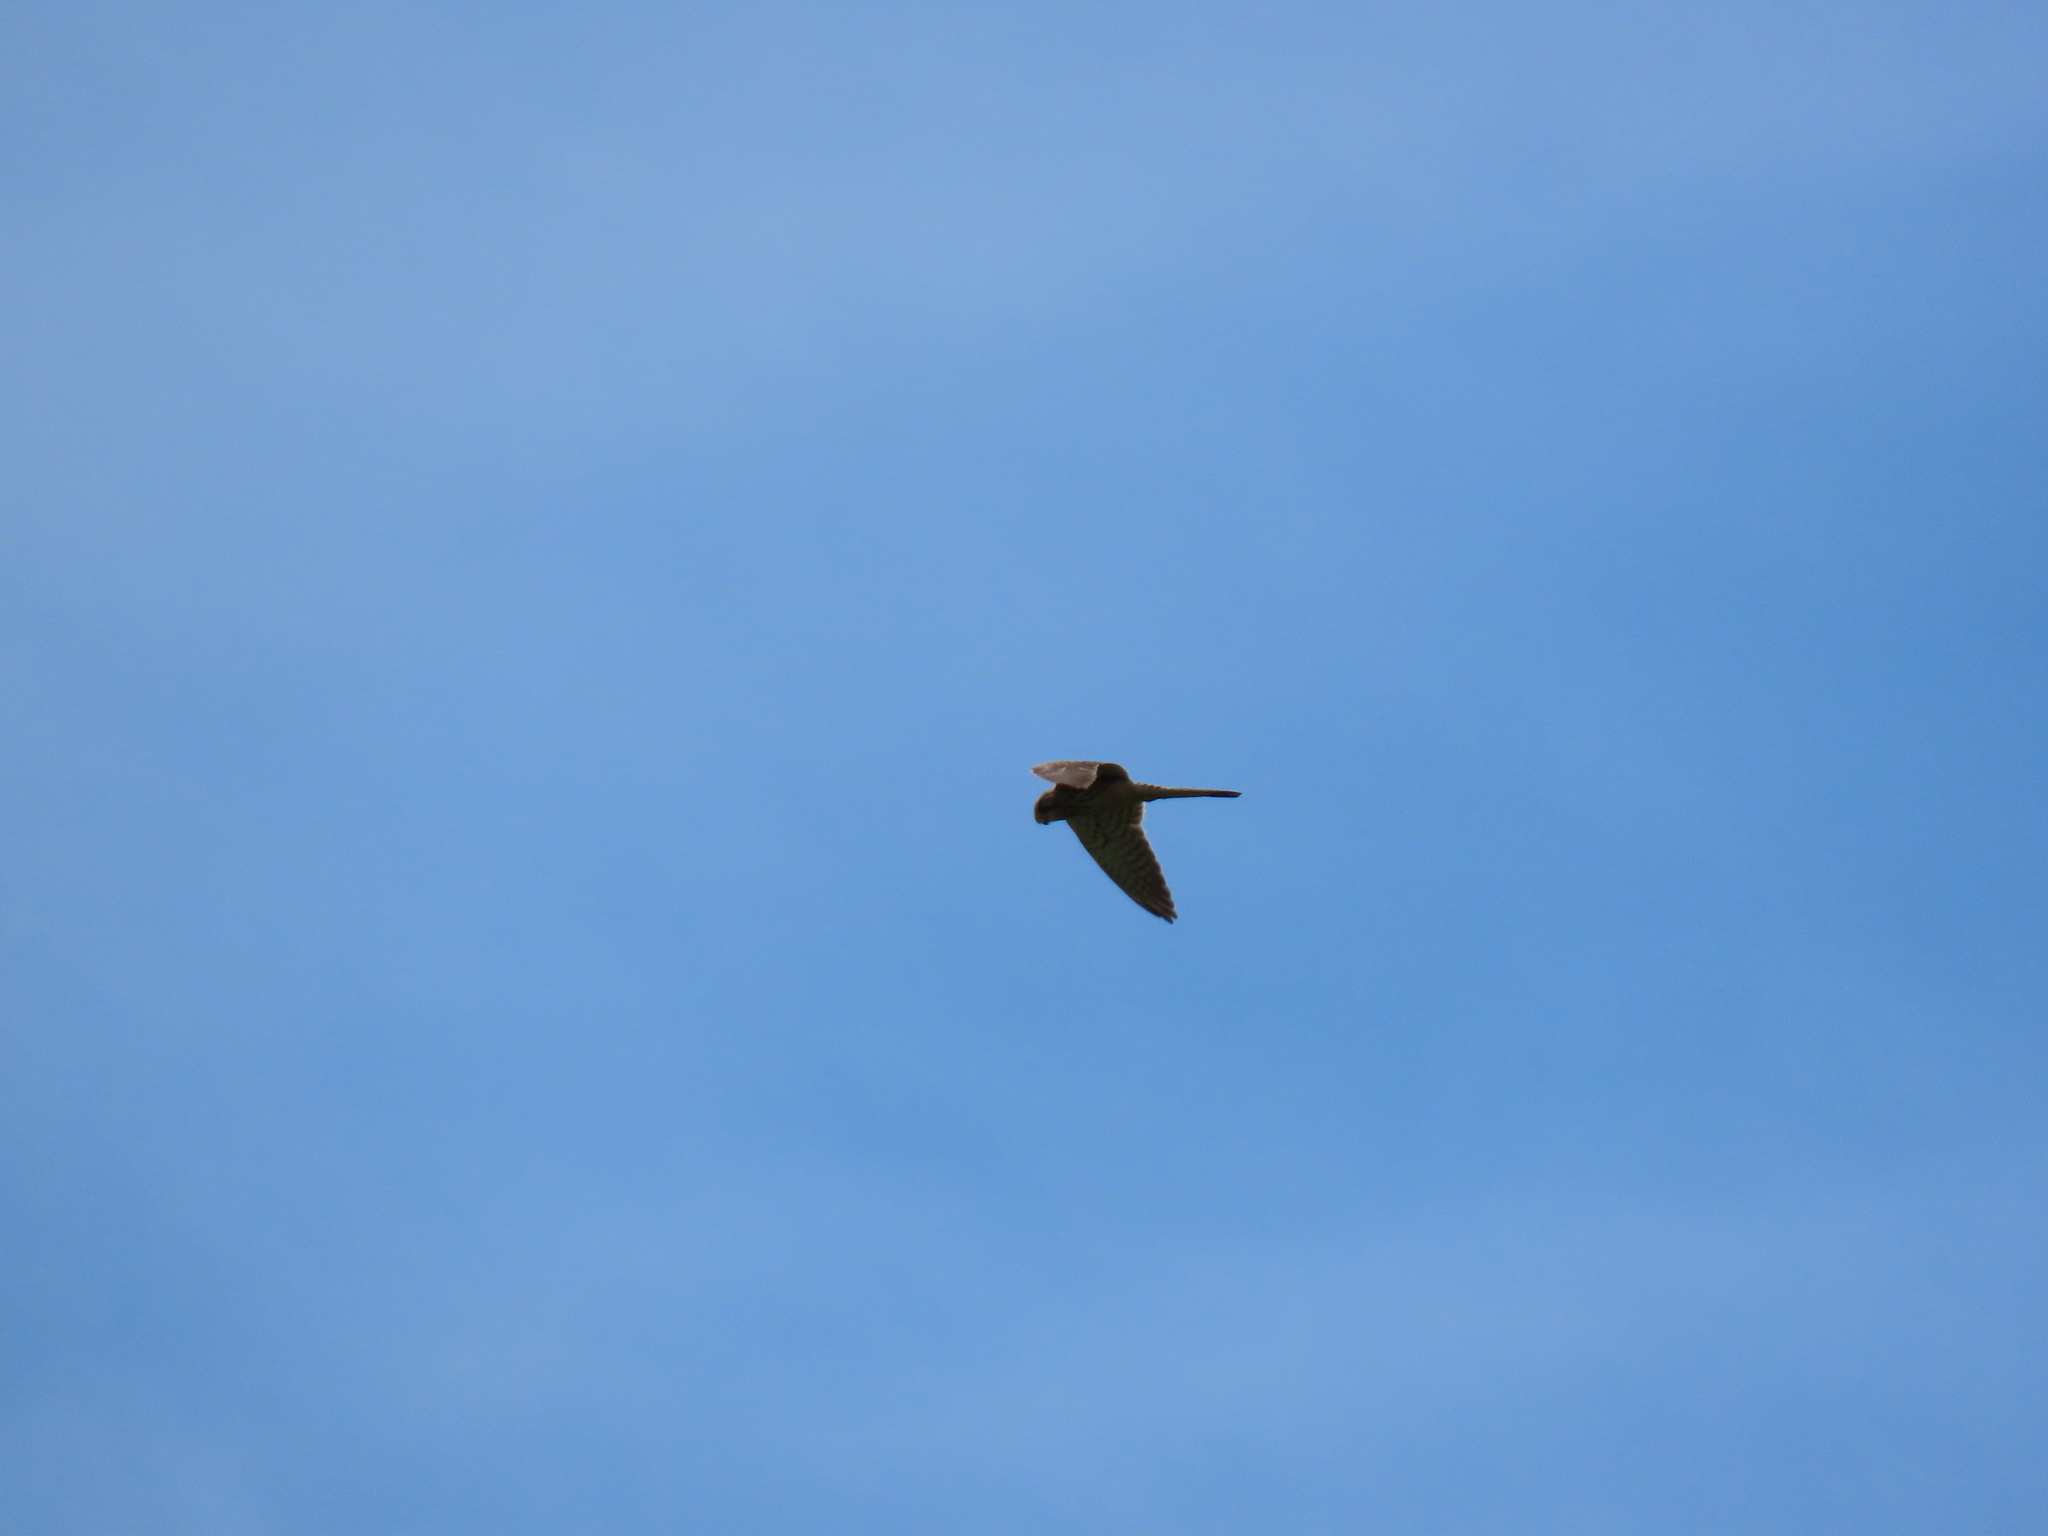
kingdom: Animalia
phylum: Chordata
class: Aves
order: Falconiformes
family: Falconidae
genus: Falco
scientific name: Falco tinnunculus
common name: Common kestrel
